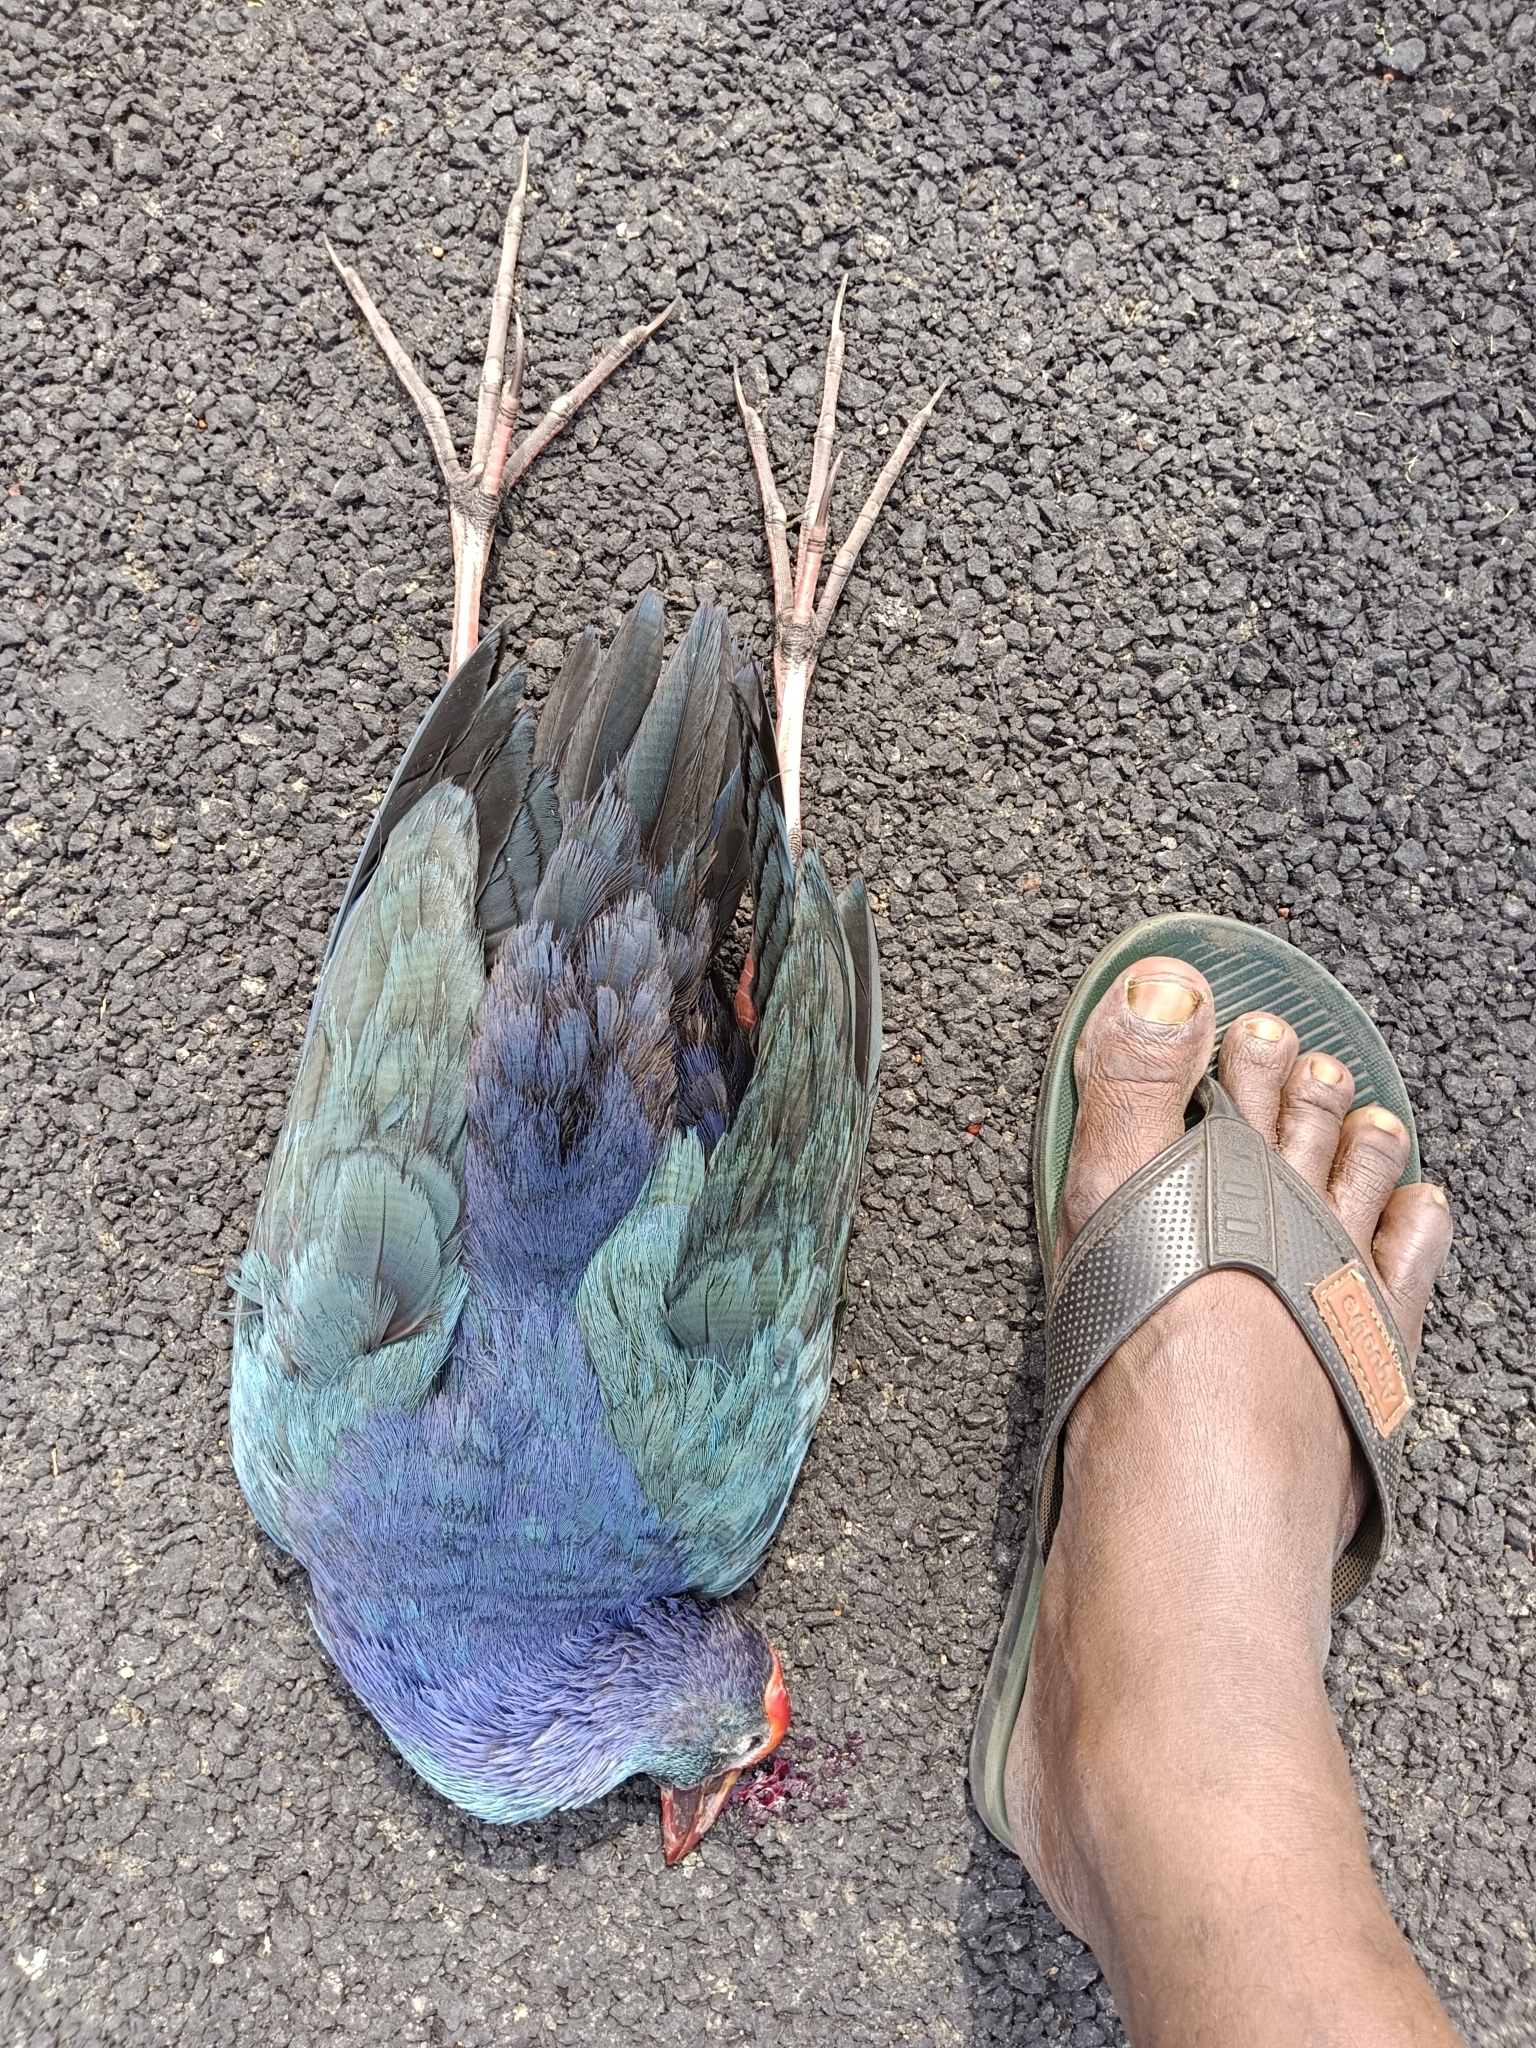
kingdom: Animalia
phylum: Chordata
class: Aves
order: Gruiformes
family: Rallidae
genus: Porphyrio
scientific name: Porphyrio porphyrio
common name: Purple swamphen
